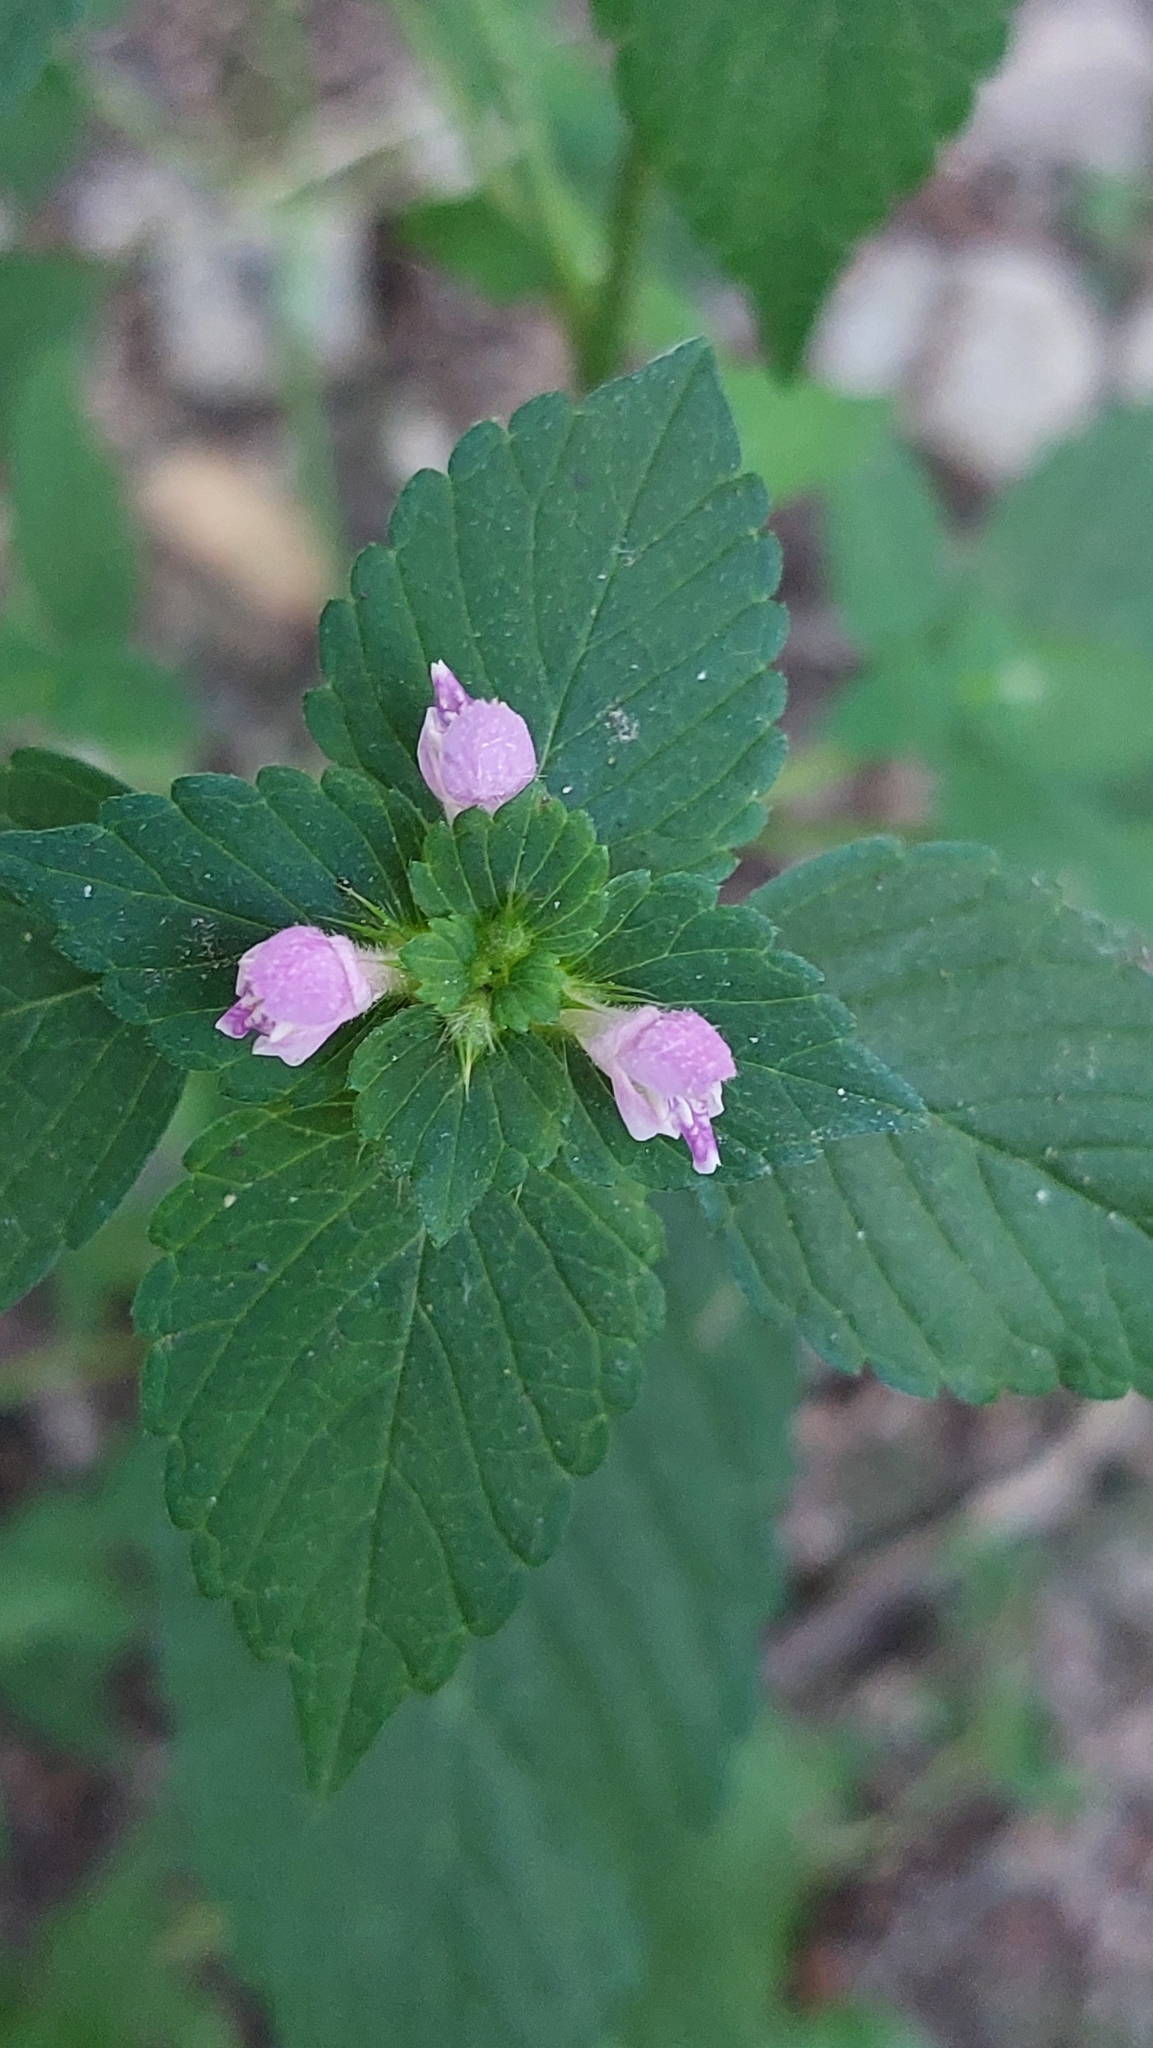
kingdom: Plantae
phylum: Tracheophyta
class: Magnoliopsida
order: Lamiales
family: Lamiaceae
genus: Galeopsis
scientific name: Galeopsis bifida
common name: Bifid hemp-nettle
